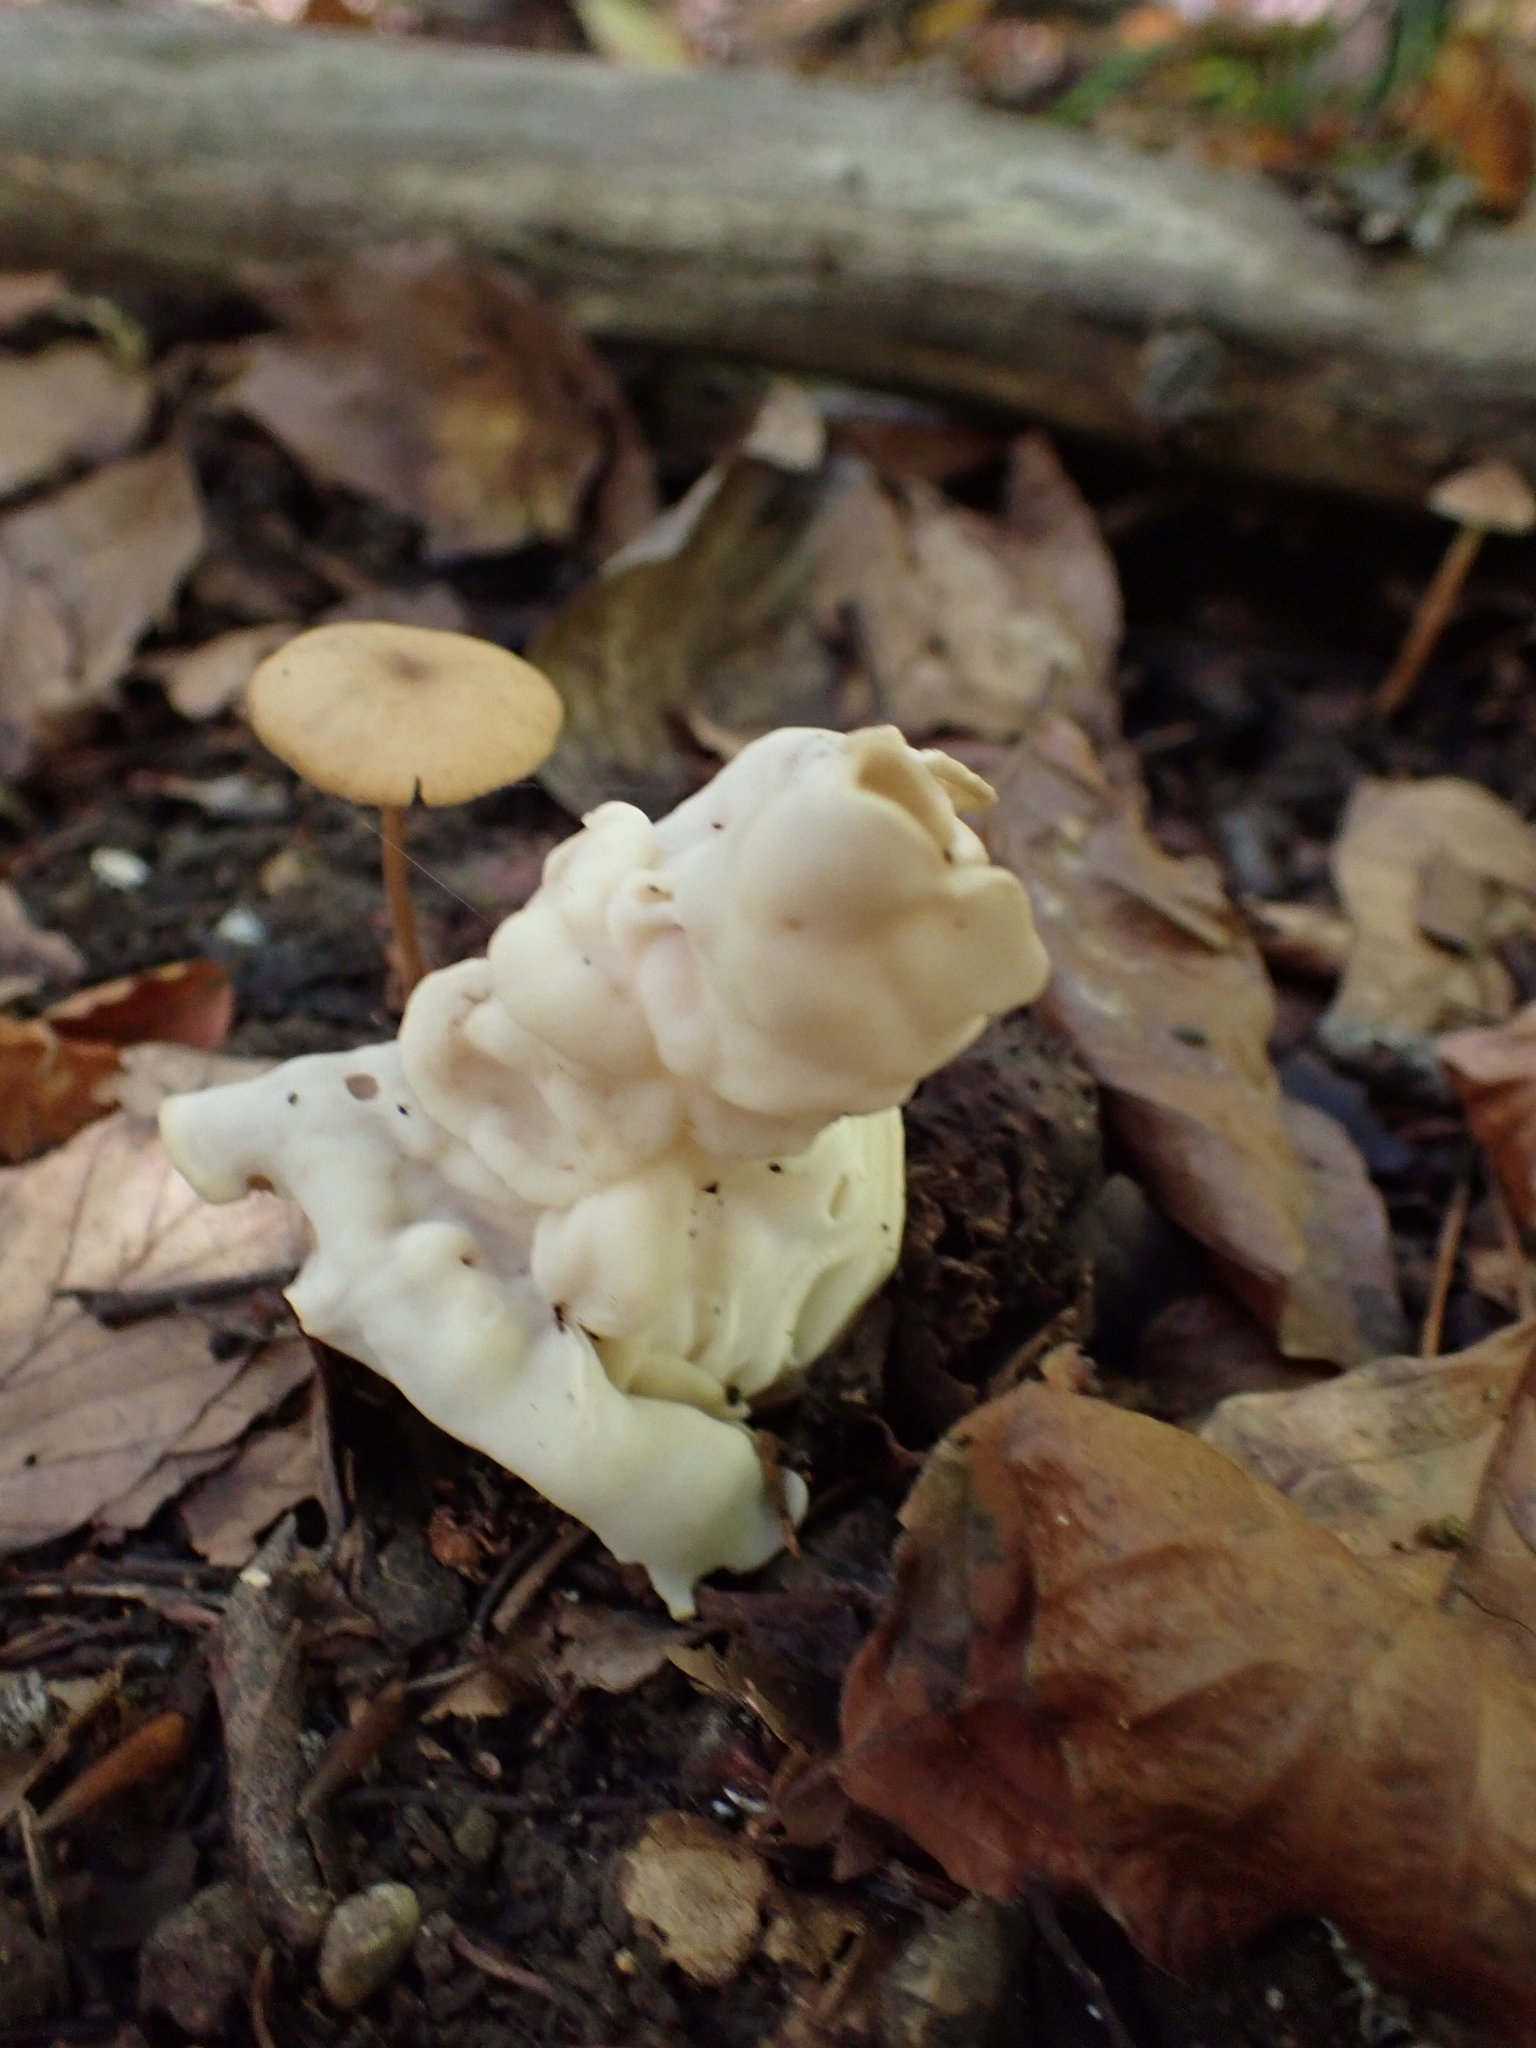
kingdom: Fungi
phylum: Ascomycota
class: Pezizomycetes
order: Pezizales
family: Helvellaceae
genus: Helvella
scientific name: Helvella crispa
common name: White saddle
